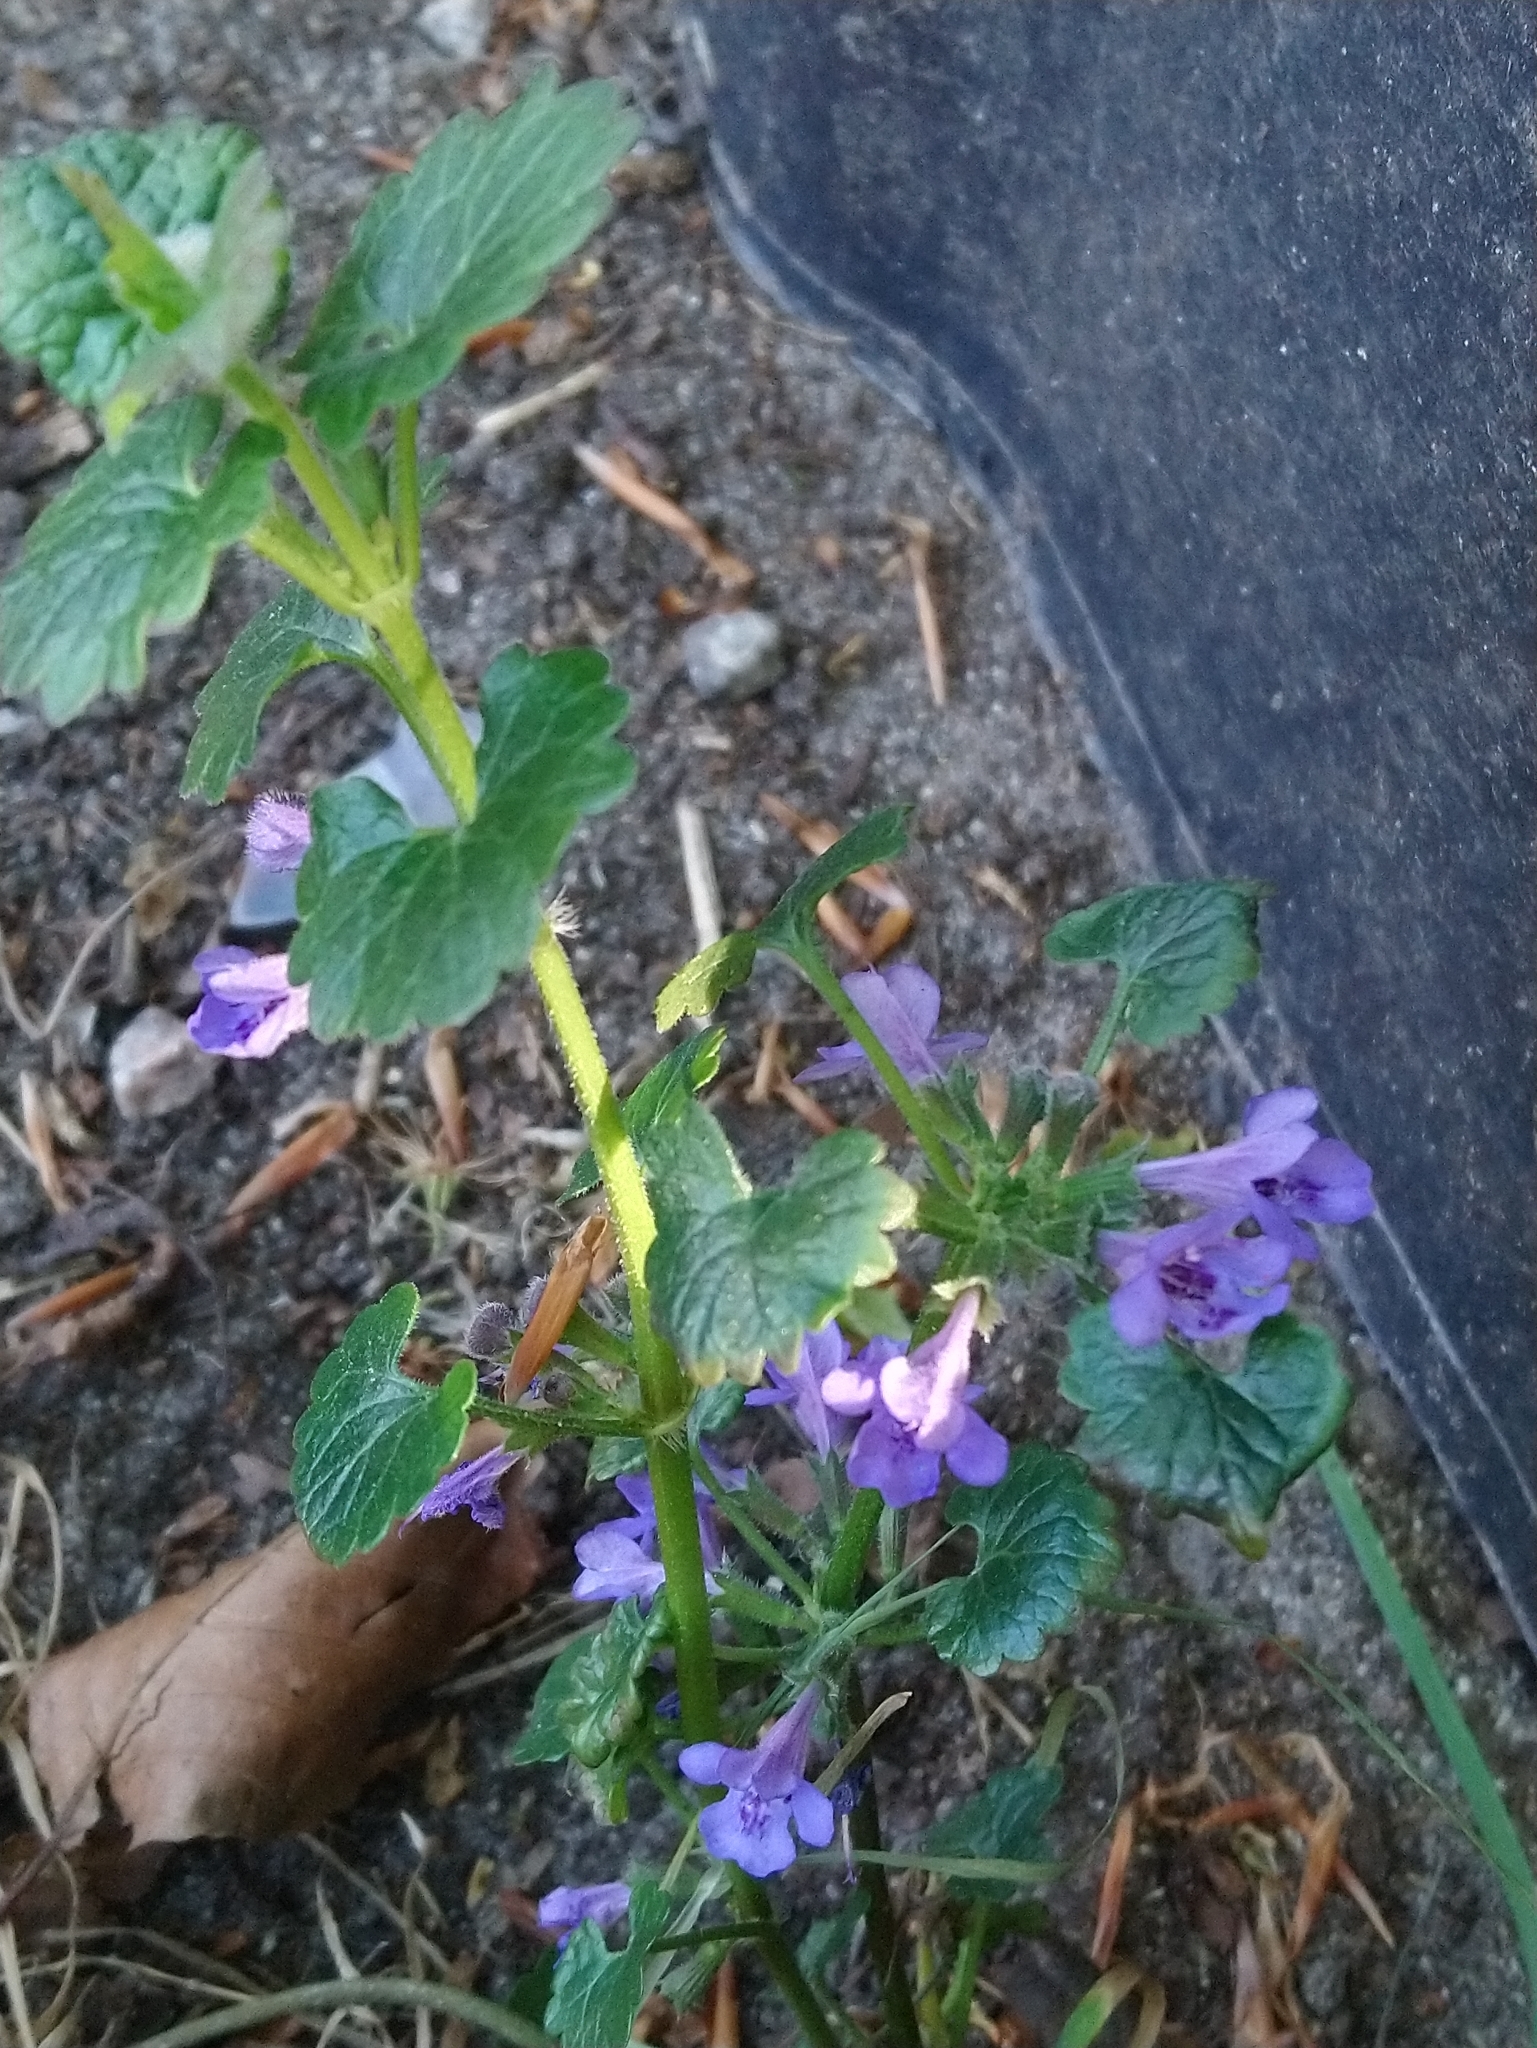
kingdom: Plantae
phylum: Tracheophyta
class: Magnoliopsida
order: Lamiales
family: Lamiaceae
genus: Glechoma
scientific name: Glechoma hederacea
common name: Ground ivy
